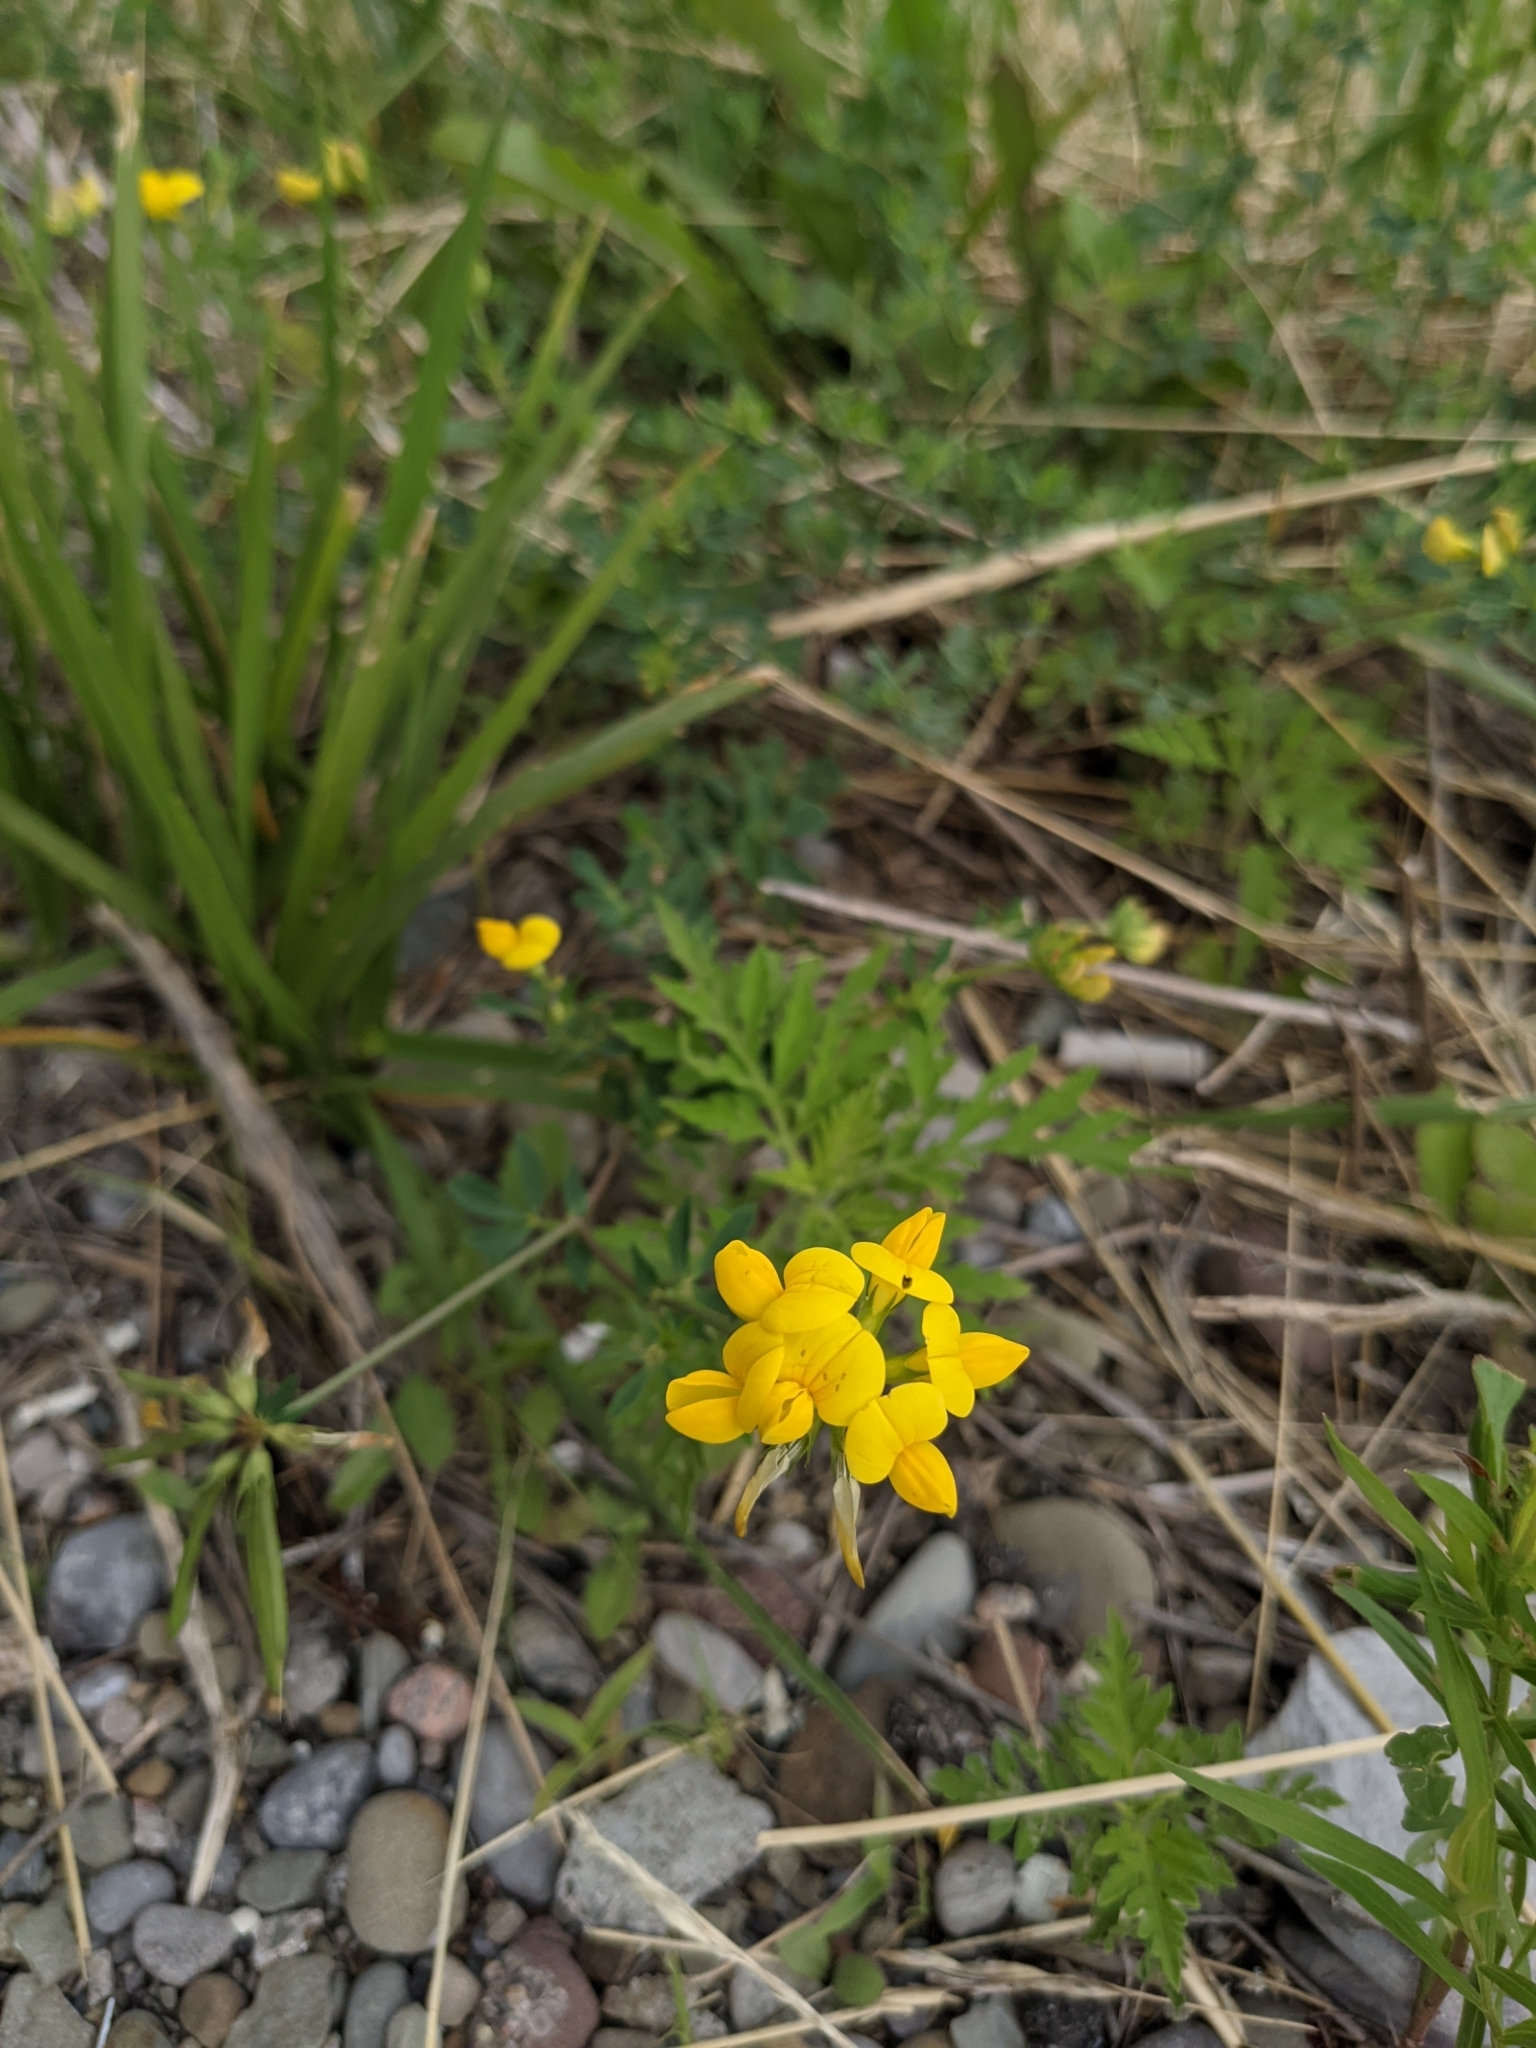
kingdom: Plantae
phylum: Tracheophyta
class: Magnoliopsida
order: Fabales
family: Fabaceae
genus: Lotus
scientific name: Lotus corniculatus
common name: Common bird's-foot-trefoil
